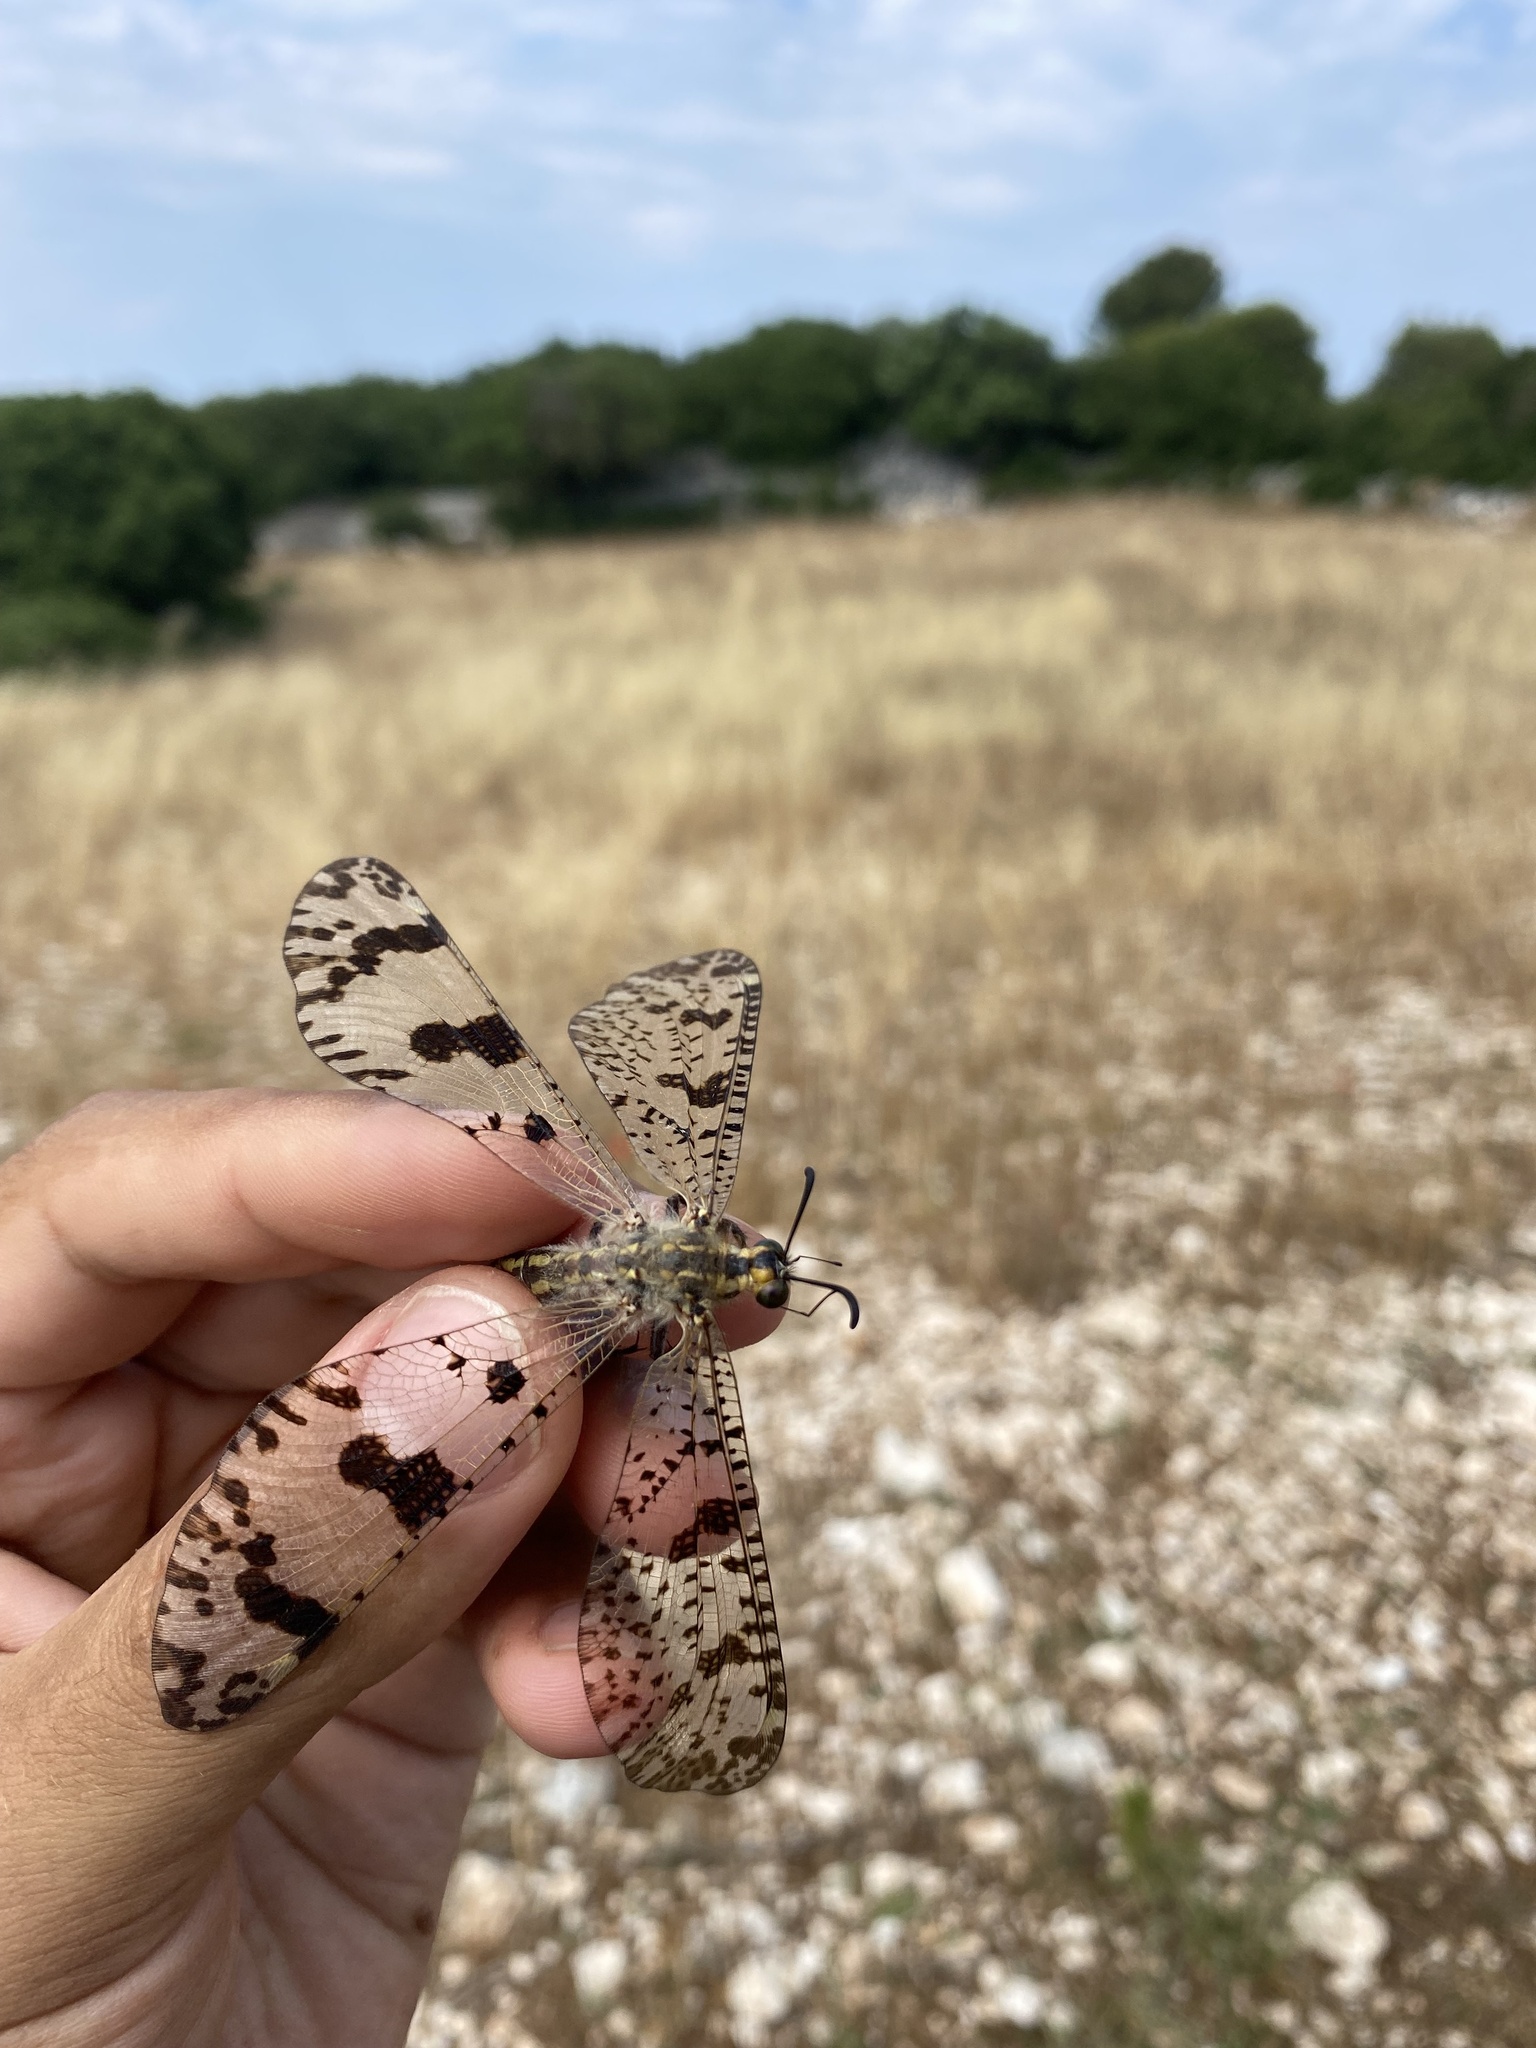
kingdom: Animalia
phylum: Arthropoda
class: Insecta
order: Neuroptera
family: Myrmeleontidae
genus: Palpares
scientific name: Palpares libelluloides
